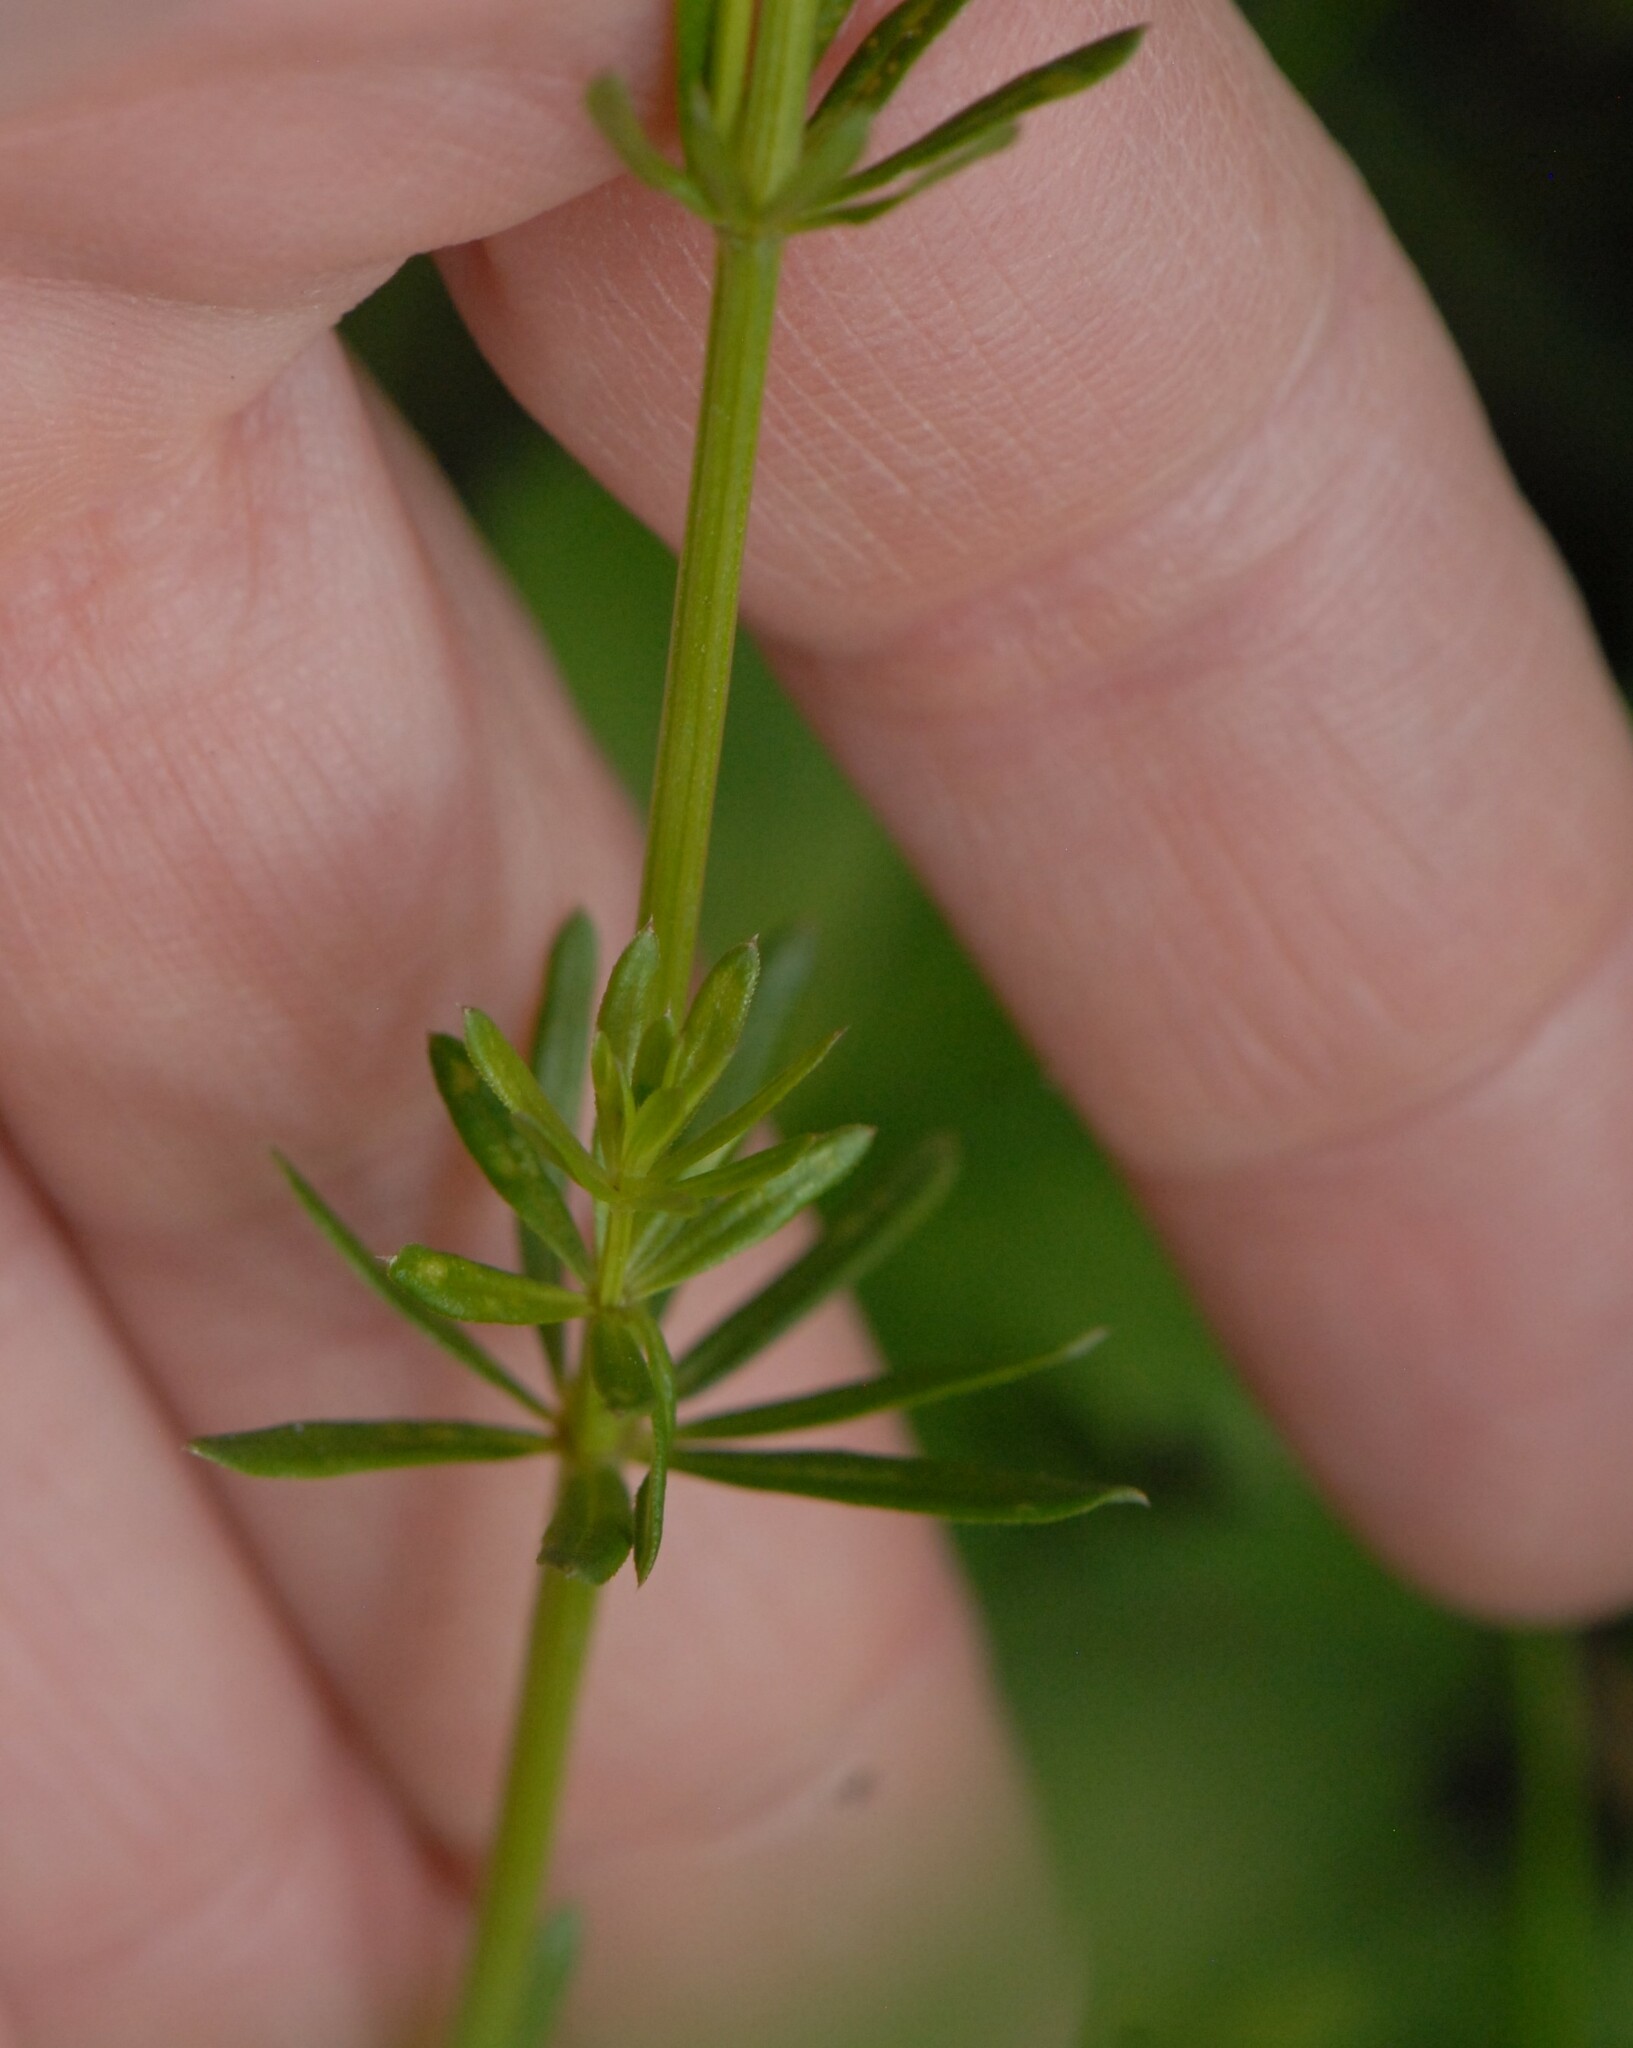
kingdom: Plantae
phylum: Tracheophyta
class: Magnoliopsida
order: Gentianales
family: Rubiaceae
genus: Galium
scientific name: Galium mollugo
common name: Hedge bedstraw
